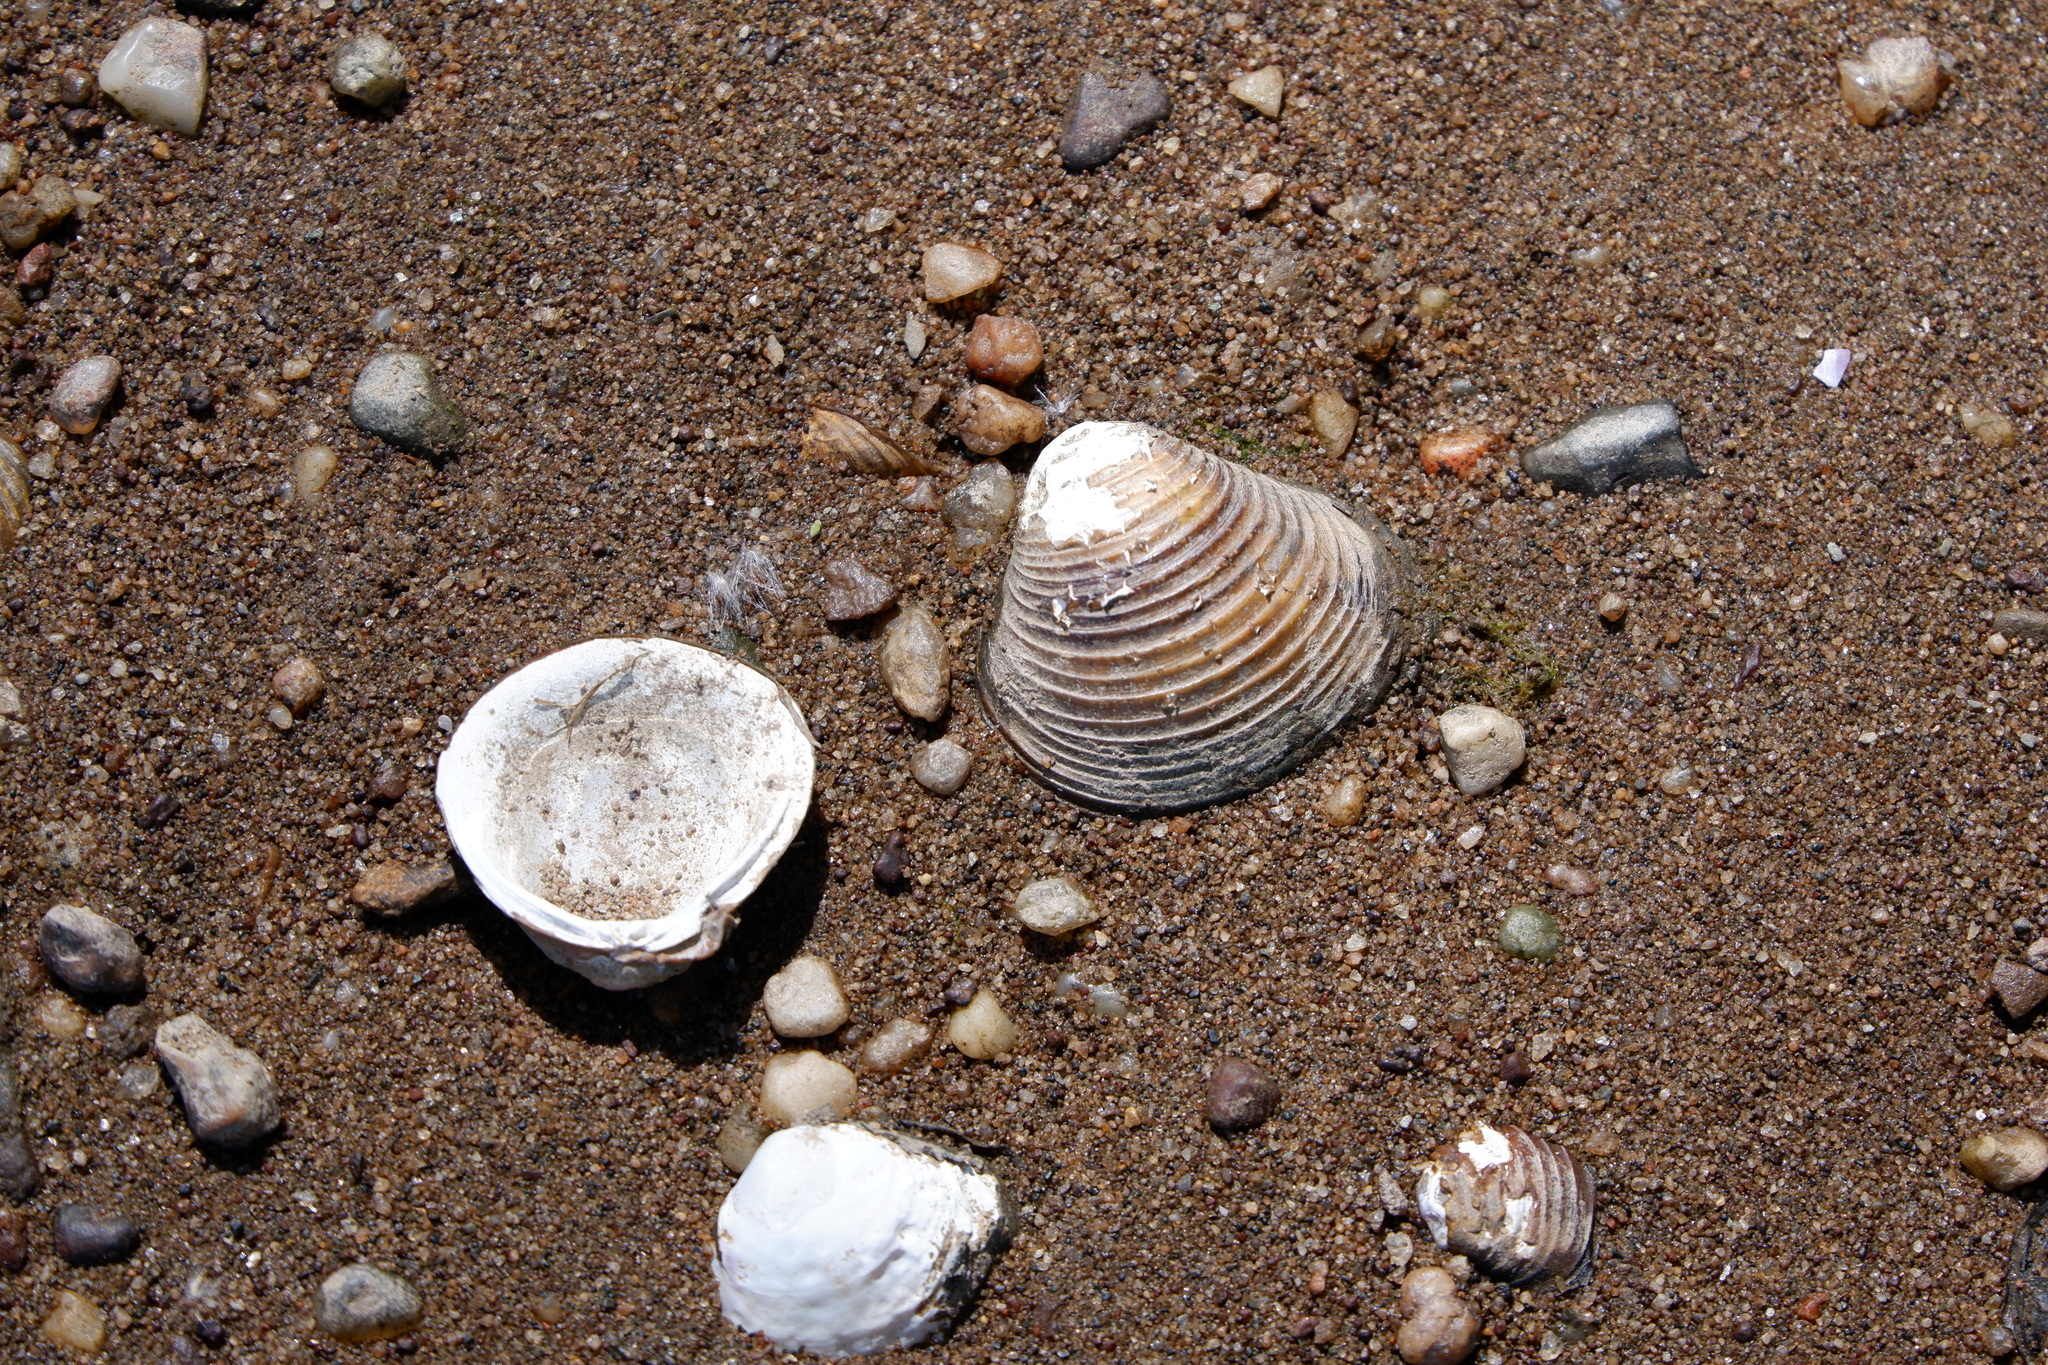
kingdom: Animalia
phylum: Mollusca
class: Bivalvia
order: Venerida
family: Cyrenidae
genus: Corbicula
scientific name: Corbicula fluminea
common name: Asian clam
